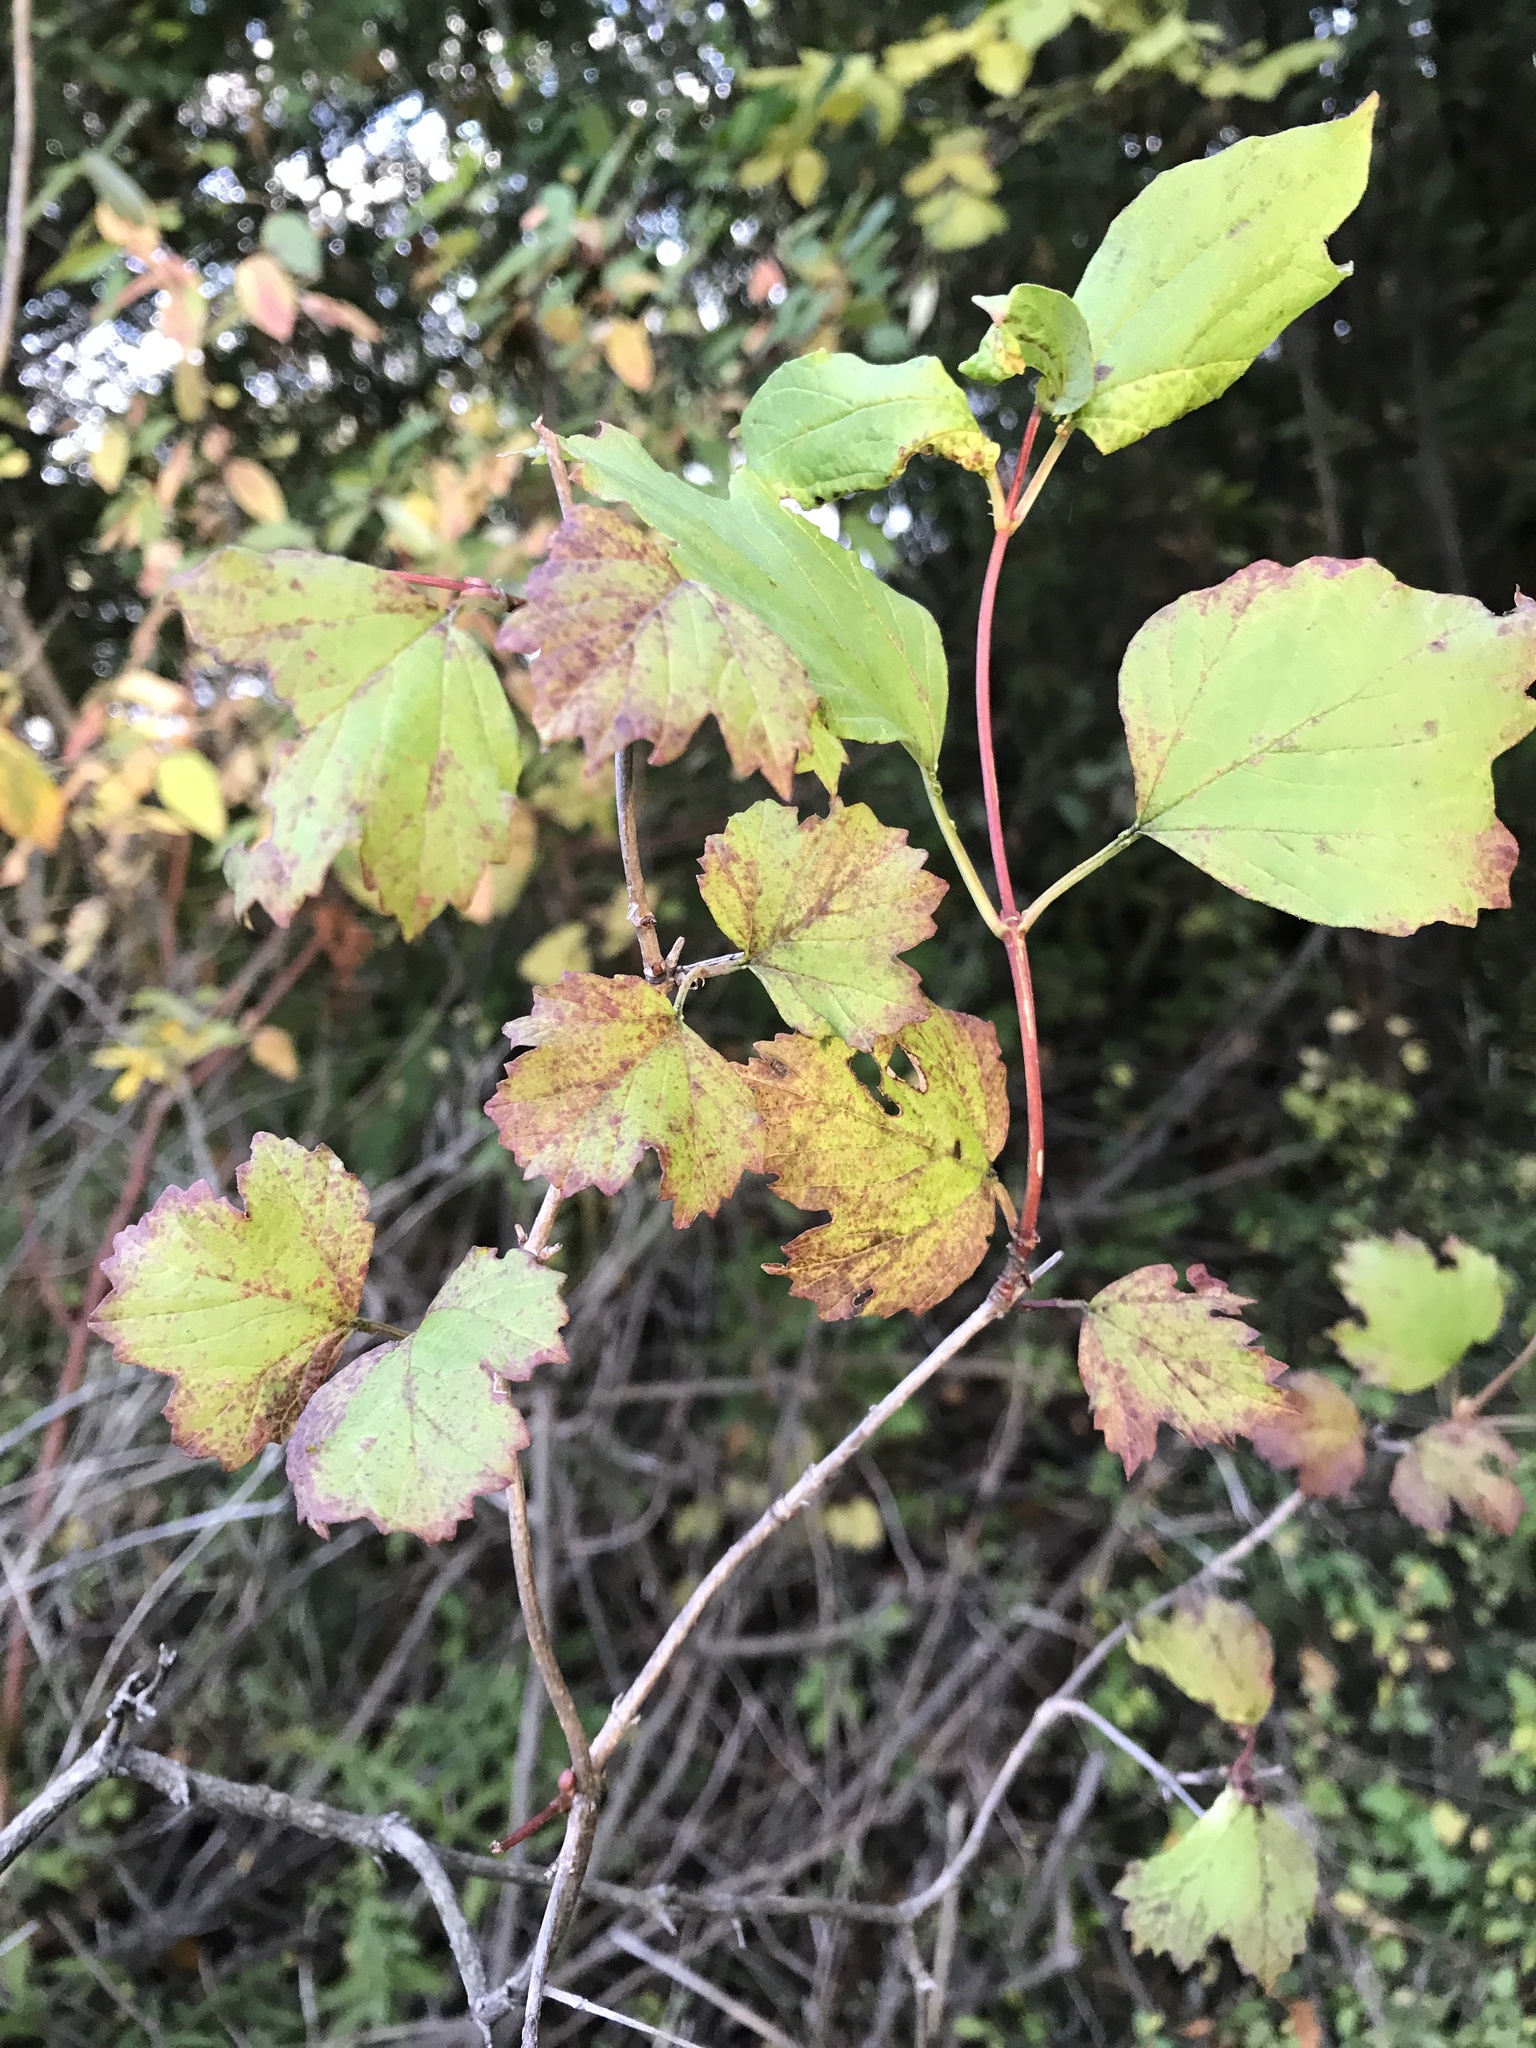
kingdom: Plantae
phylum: Tracheophyta
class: Magnoliopsida
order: Dipsacales
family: Viburnaceae
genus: Viburnum
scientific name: Viburnum opulus
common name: Guelder-rose
